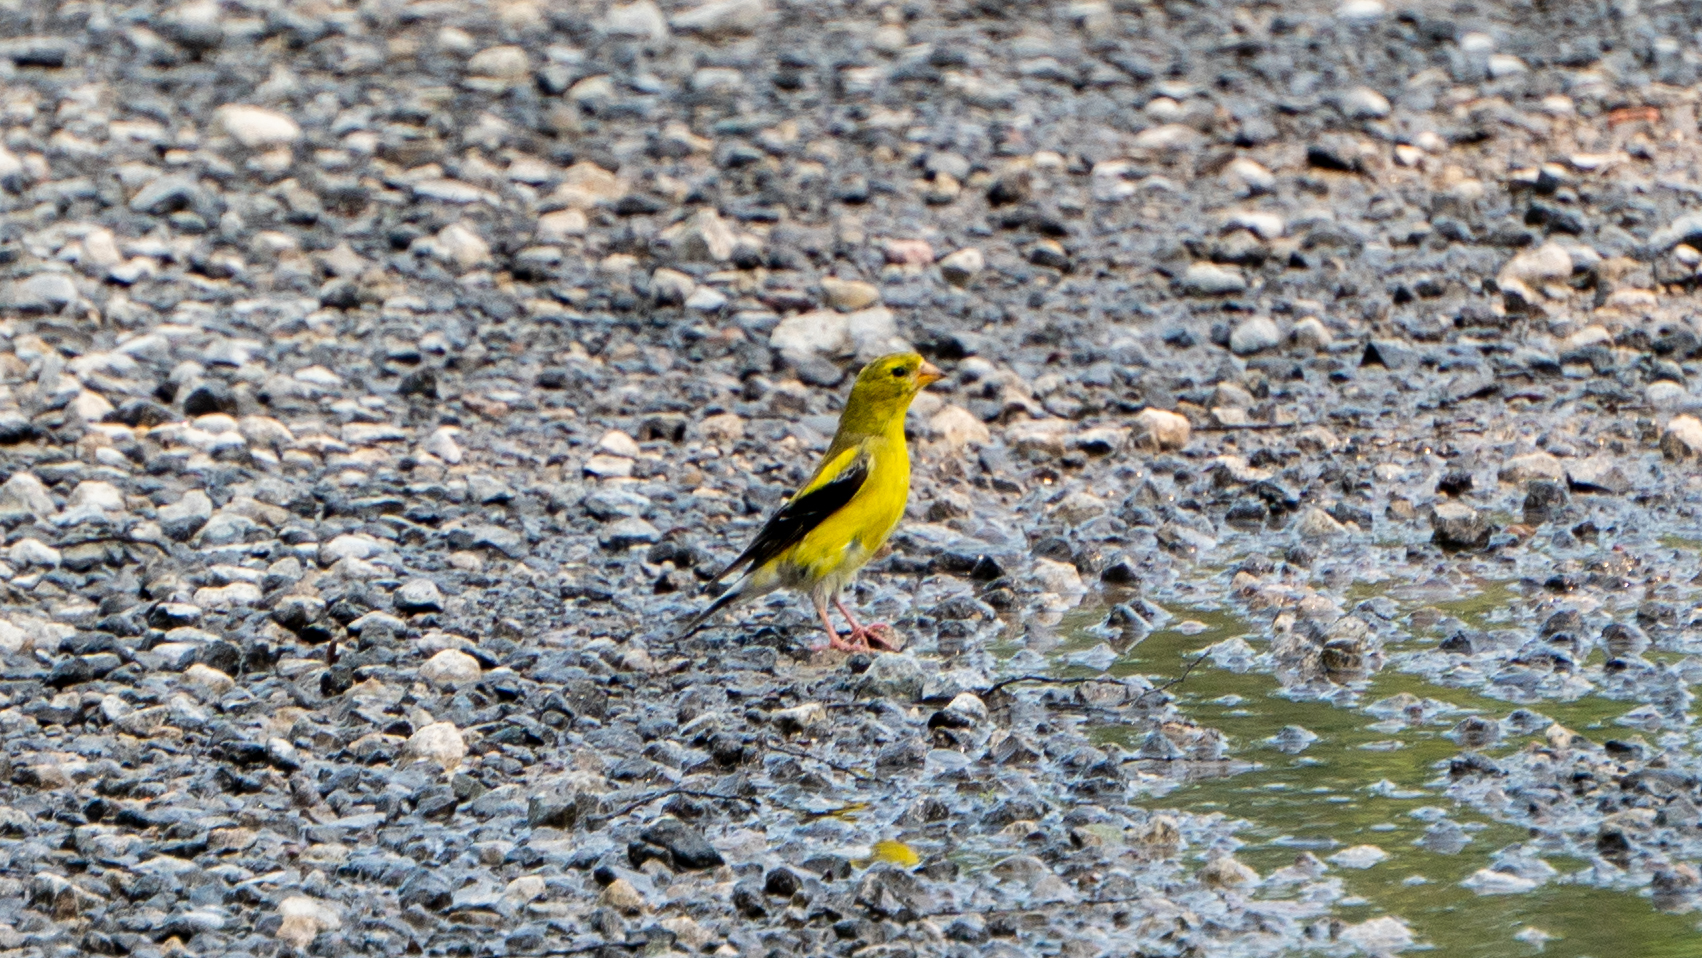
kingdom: Animalia
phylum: Chordata
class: Aves
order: Passeriformes
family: Fringillidae
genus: Spinus
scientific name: Spinus tristis
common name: American goldfinch
